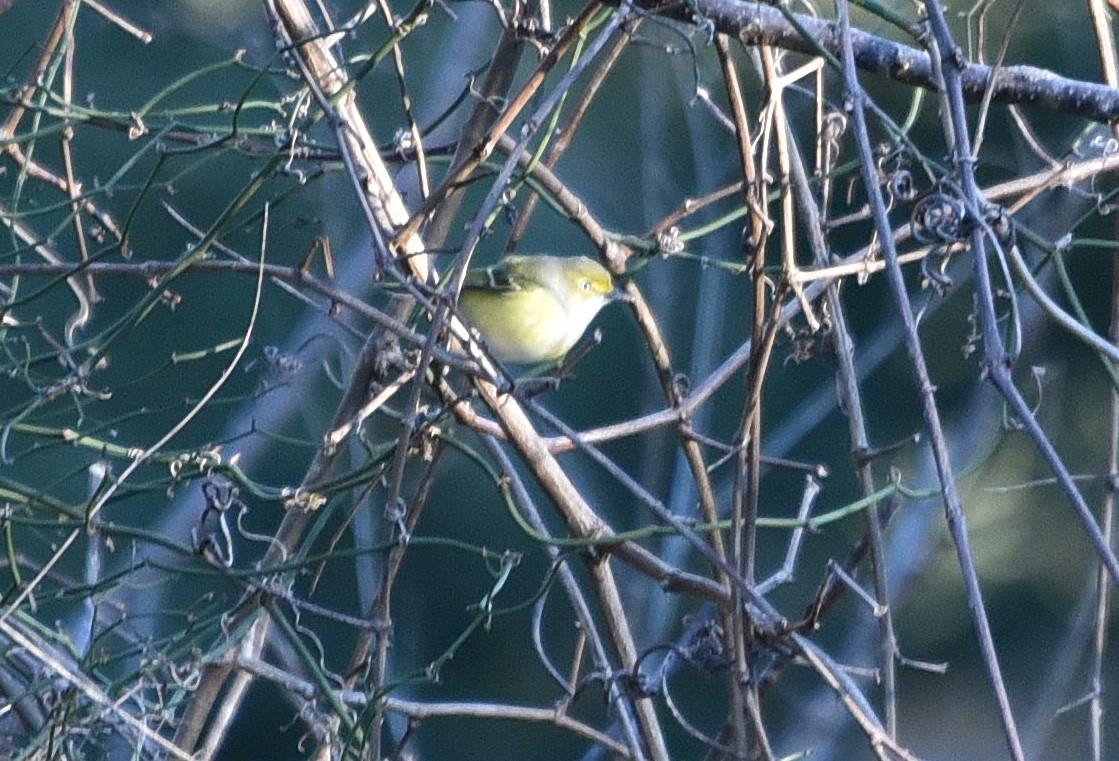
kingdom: Animalia
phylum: Chordata
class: Aves
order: Passeriformes
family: Vireonidae
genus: Vireo
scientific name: Vireo griseus
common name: White-eyed vireo
